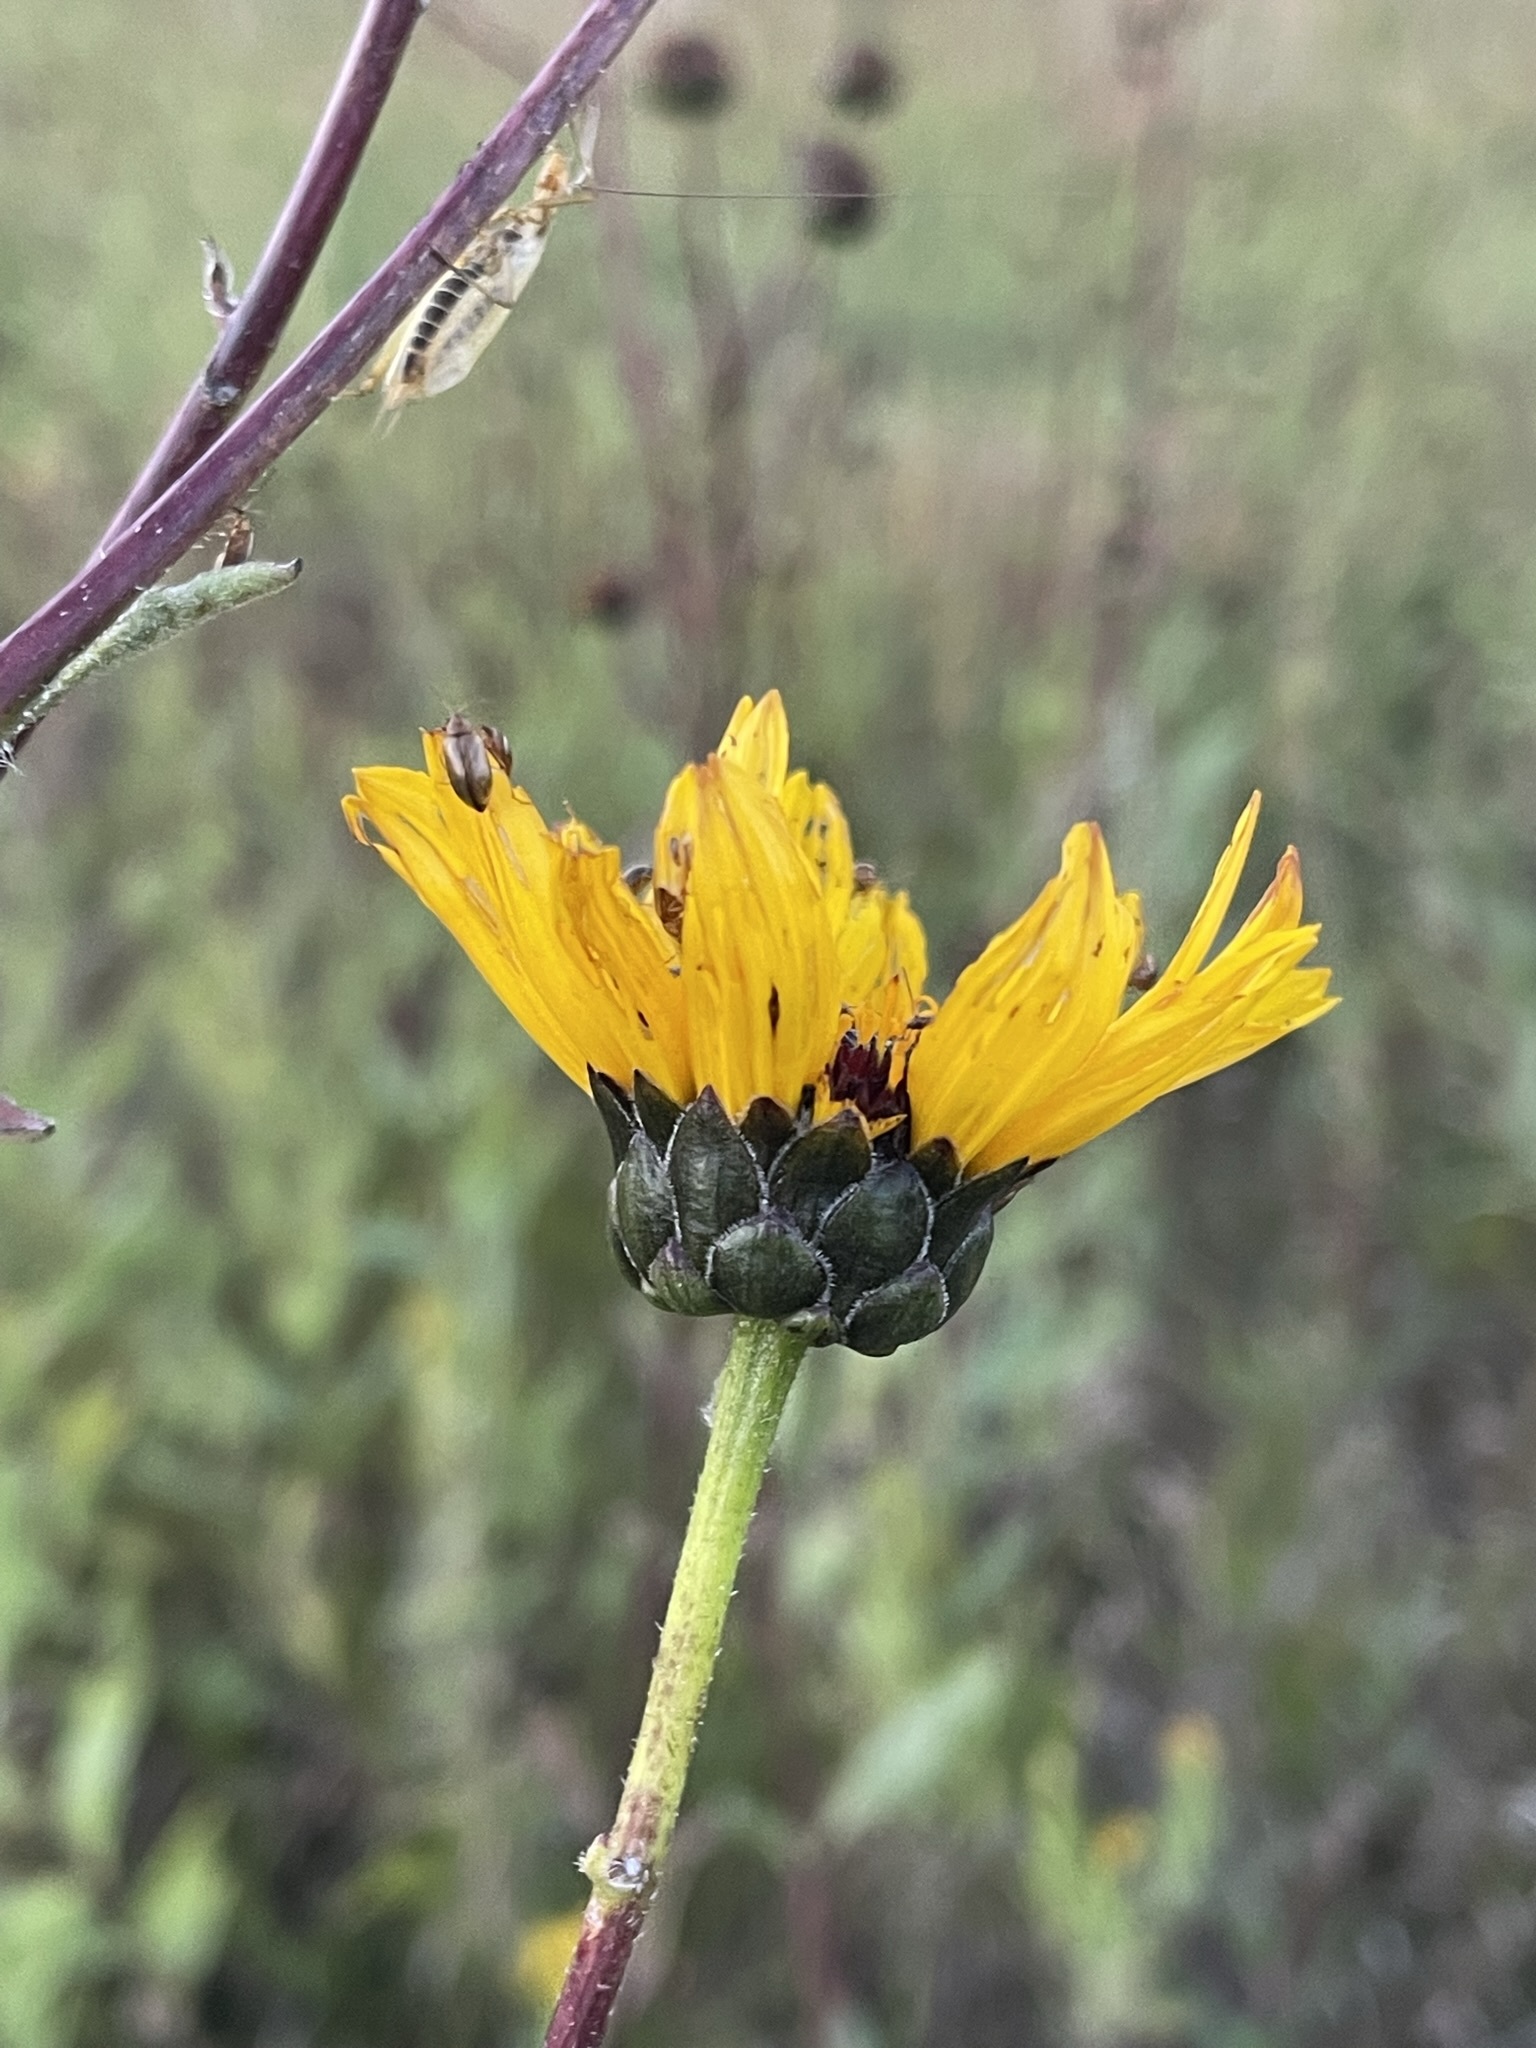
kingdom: Plantae
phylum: Tracheophyta
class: Magnoliopsida
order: Asterales
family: Asteraceae
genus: Helianthus
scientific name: Helianthus pauciflorus
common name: Stiff sunflower
